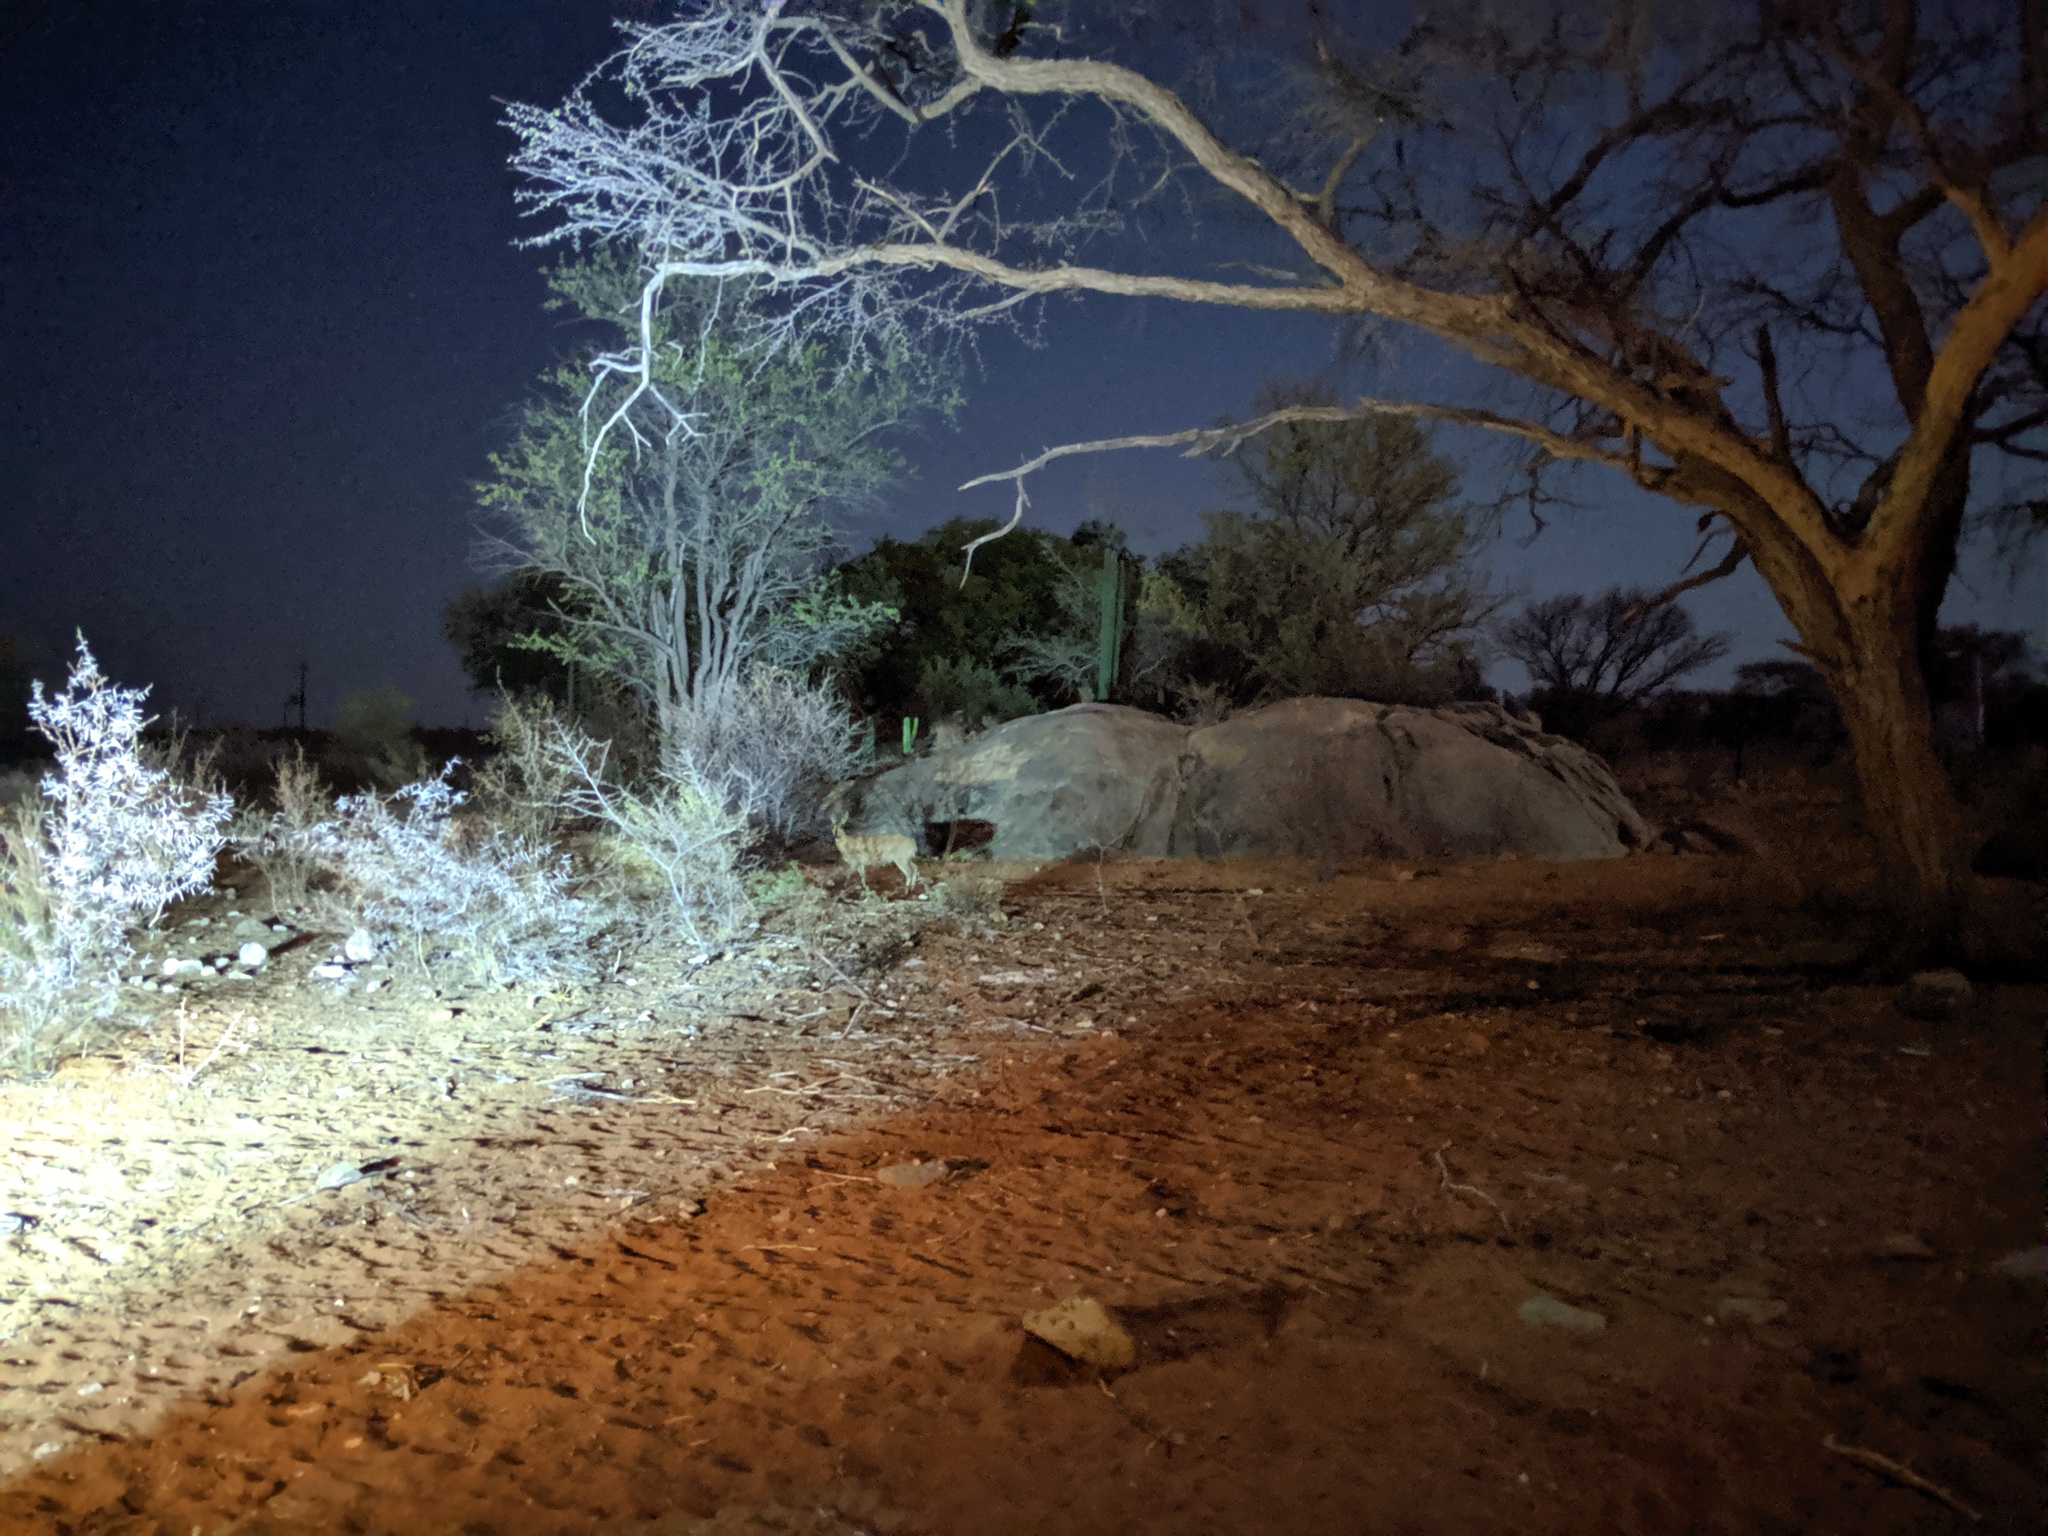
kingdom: Animalia
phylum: Chordata
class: Mammalia
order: Artiodactyla
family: Bovidae
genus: Sylvicapra
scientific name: Sylvicapra grimmia
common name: Bush duiker
